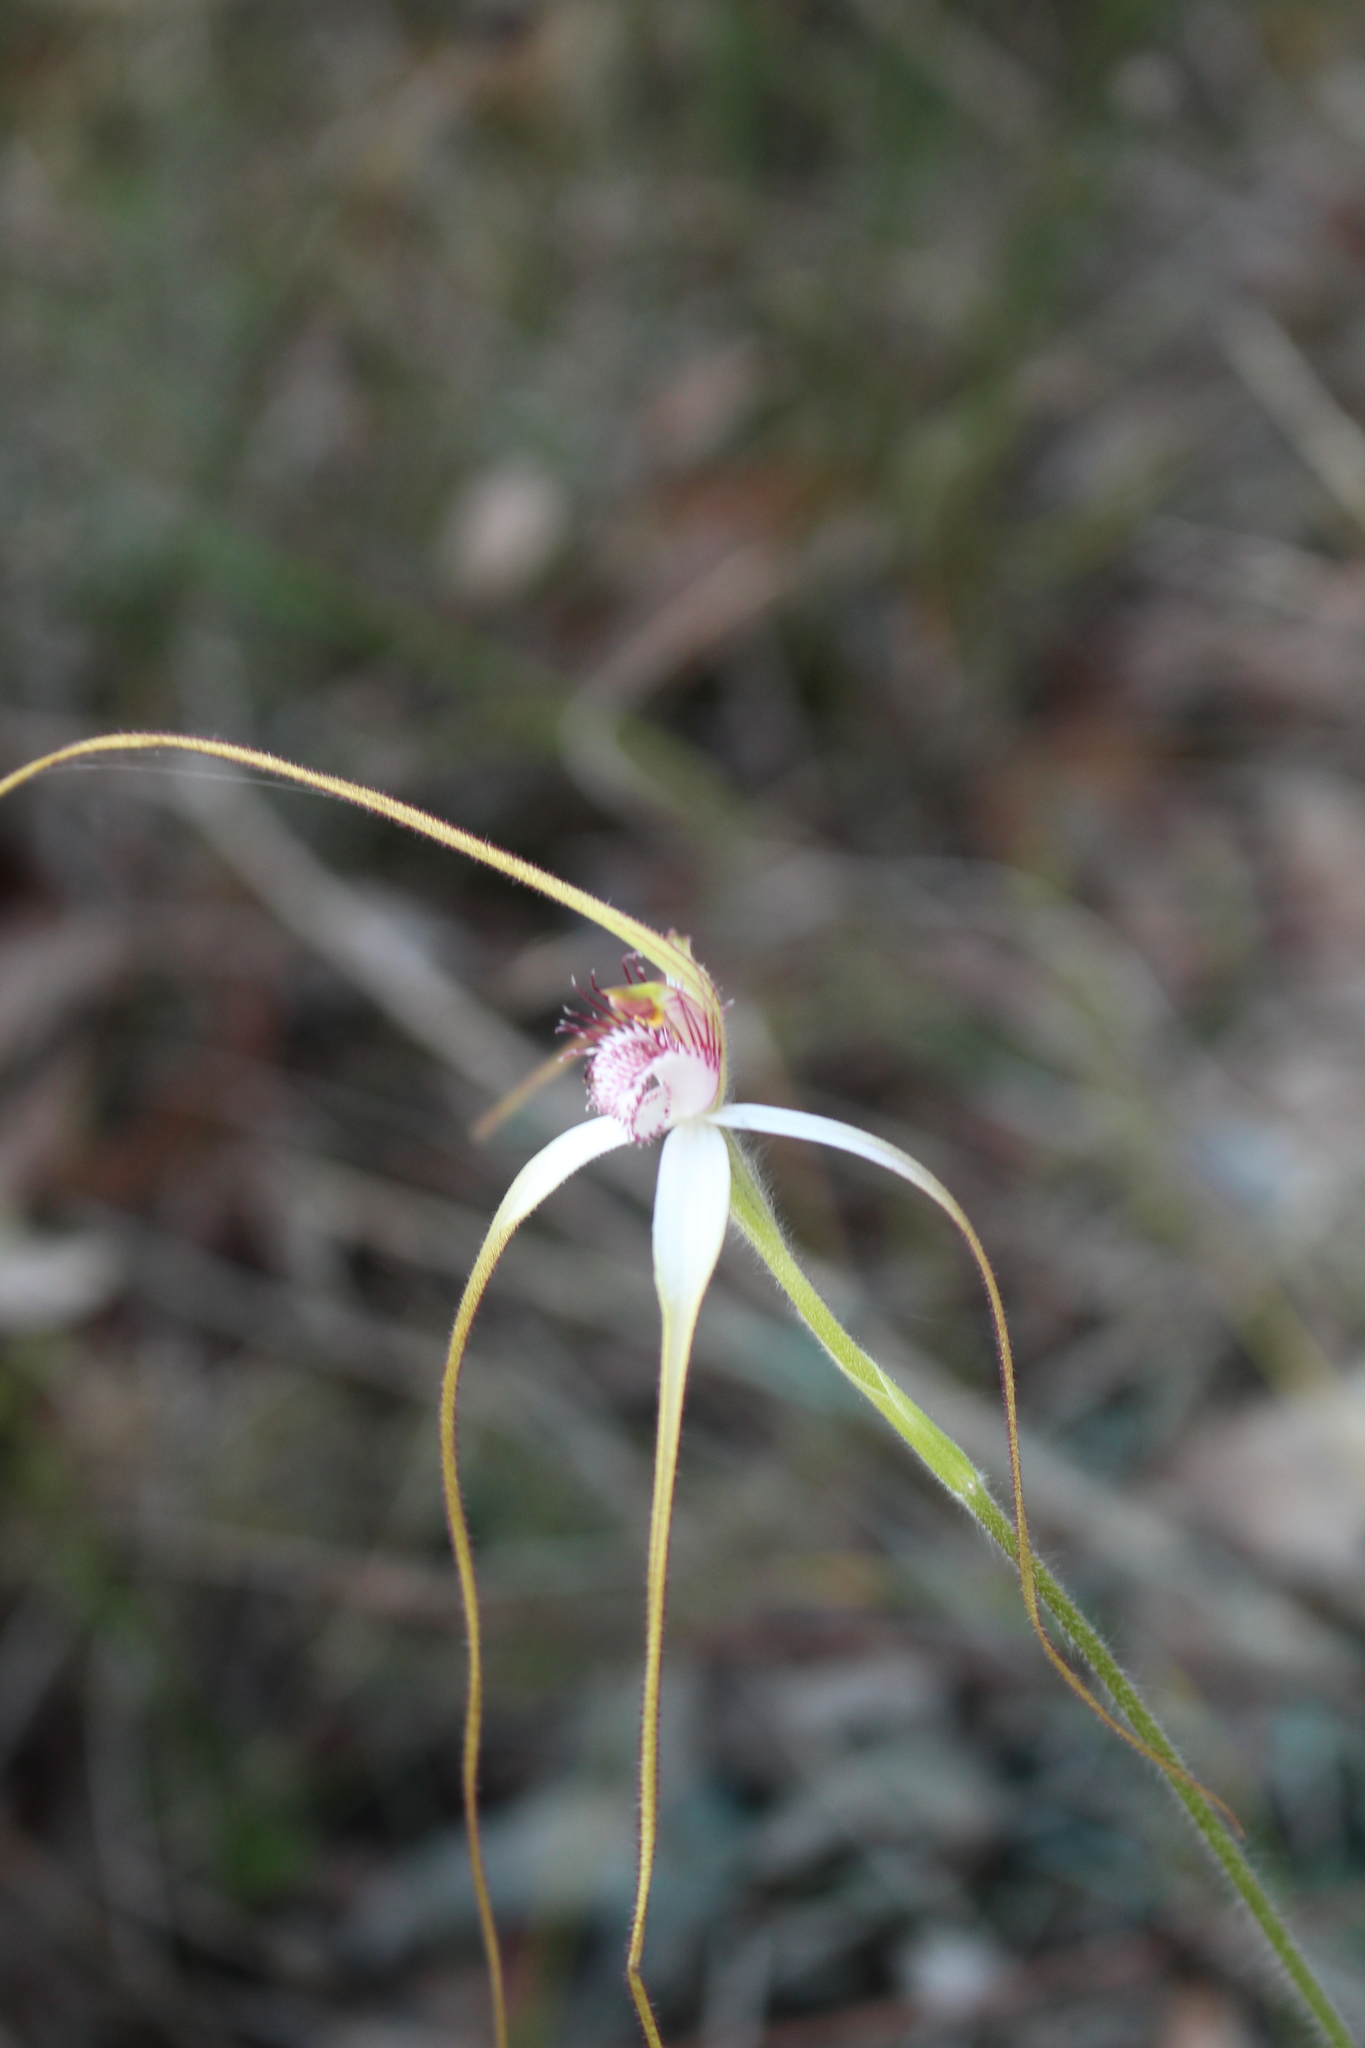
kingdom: Plantae
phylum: Tracheophyta
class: Liliopsida
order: Asparagales
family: Orchidaceae
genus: Caladenia
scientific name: Caladenia longicauda
